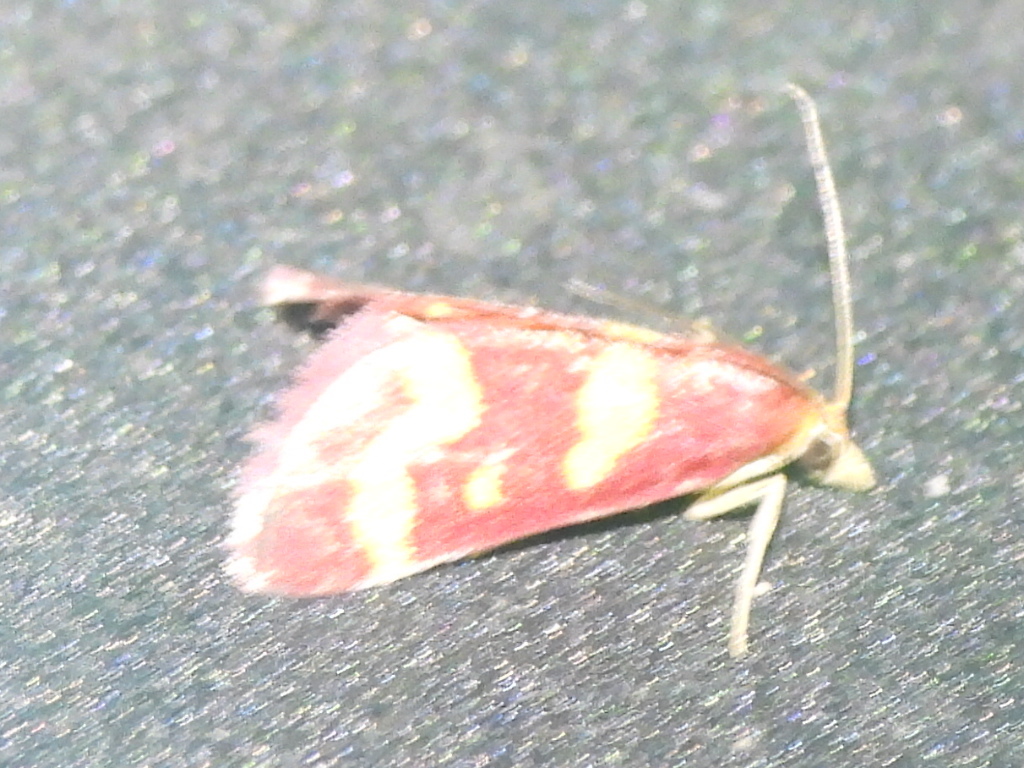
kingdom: Animalia
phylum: Arthropoda
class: Insecta
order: Lepidoptera
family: Crambidae
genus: Pyrausta
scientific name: Pyrausta tyralis
